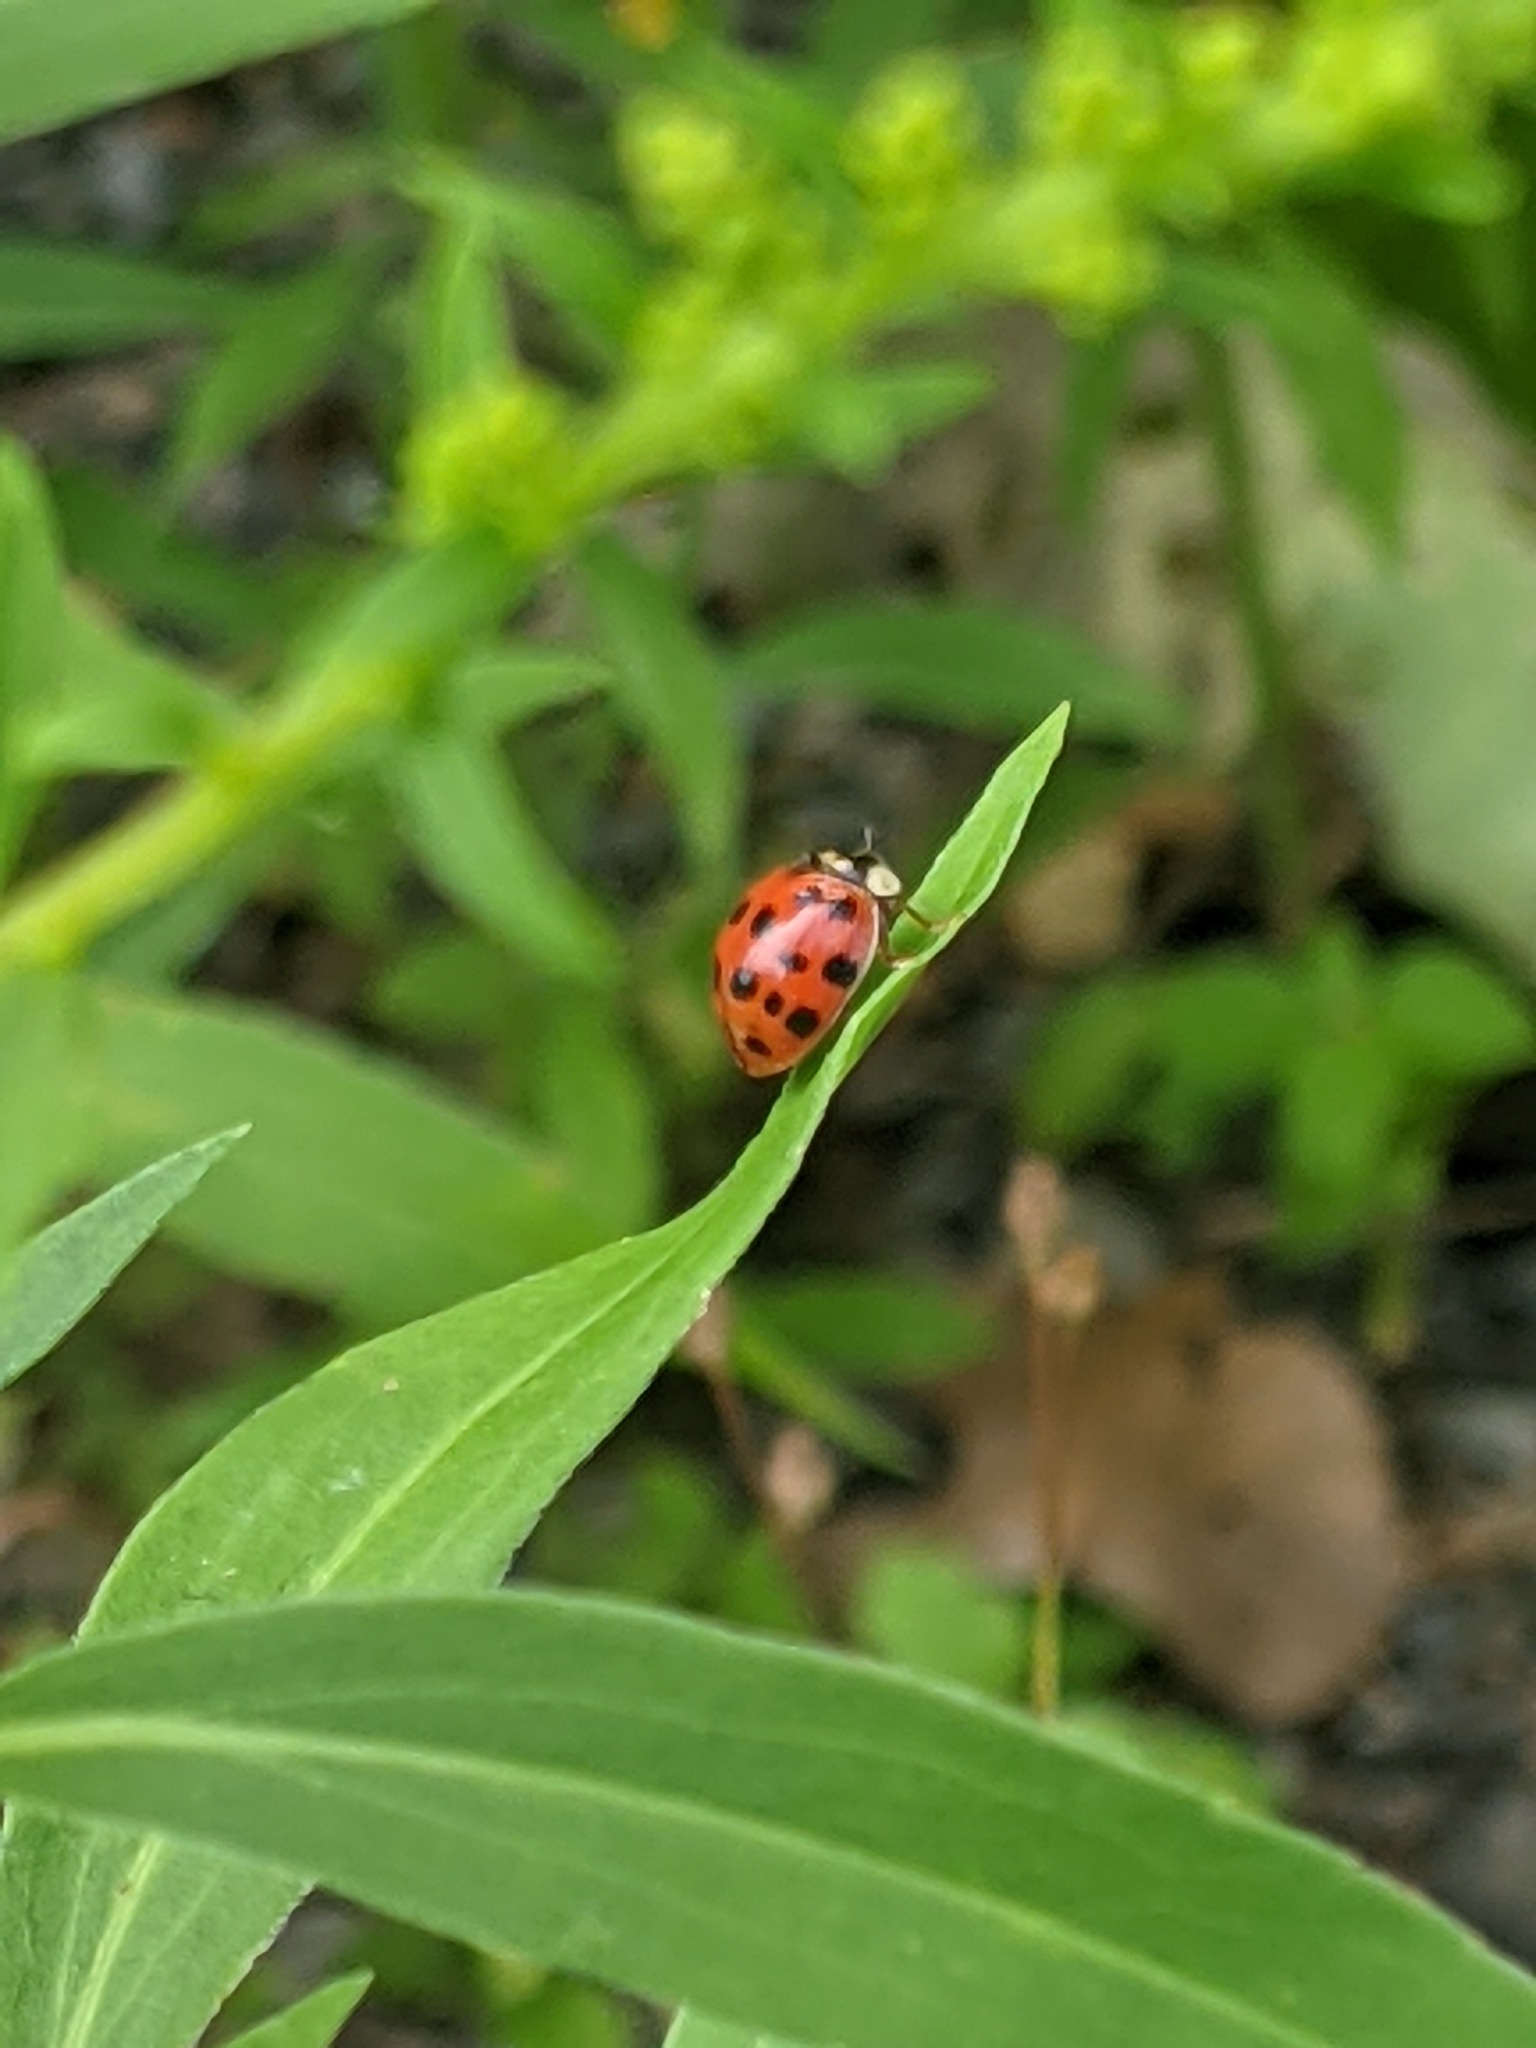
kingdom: Animalia
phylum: Arthropoda
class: Insecta
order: Coleoptera
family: Coccinellidae
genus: Harmonia
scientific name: Harmonia axyridis
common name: Harlequin ladybird
